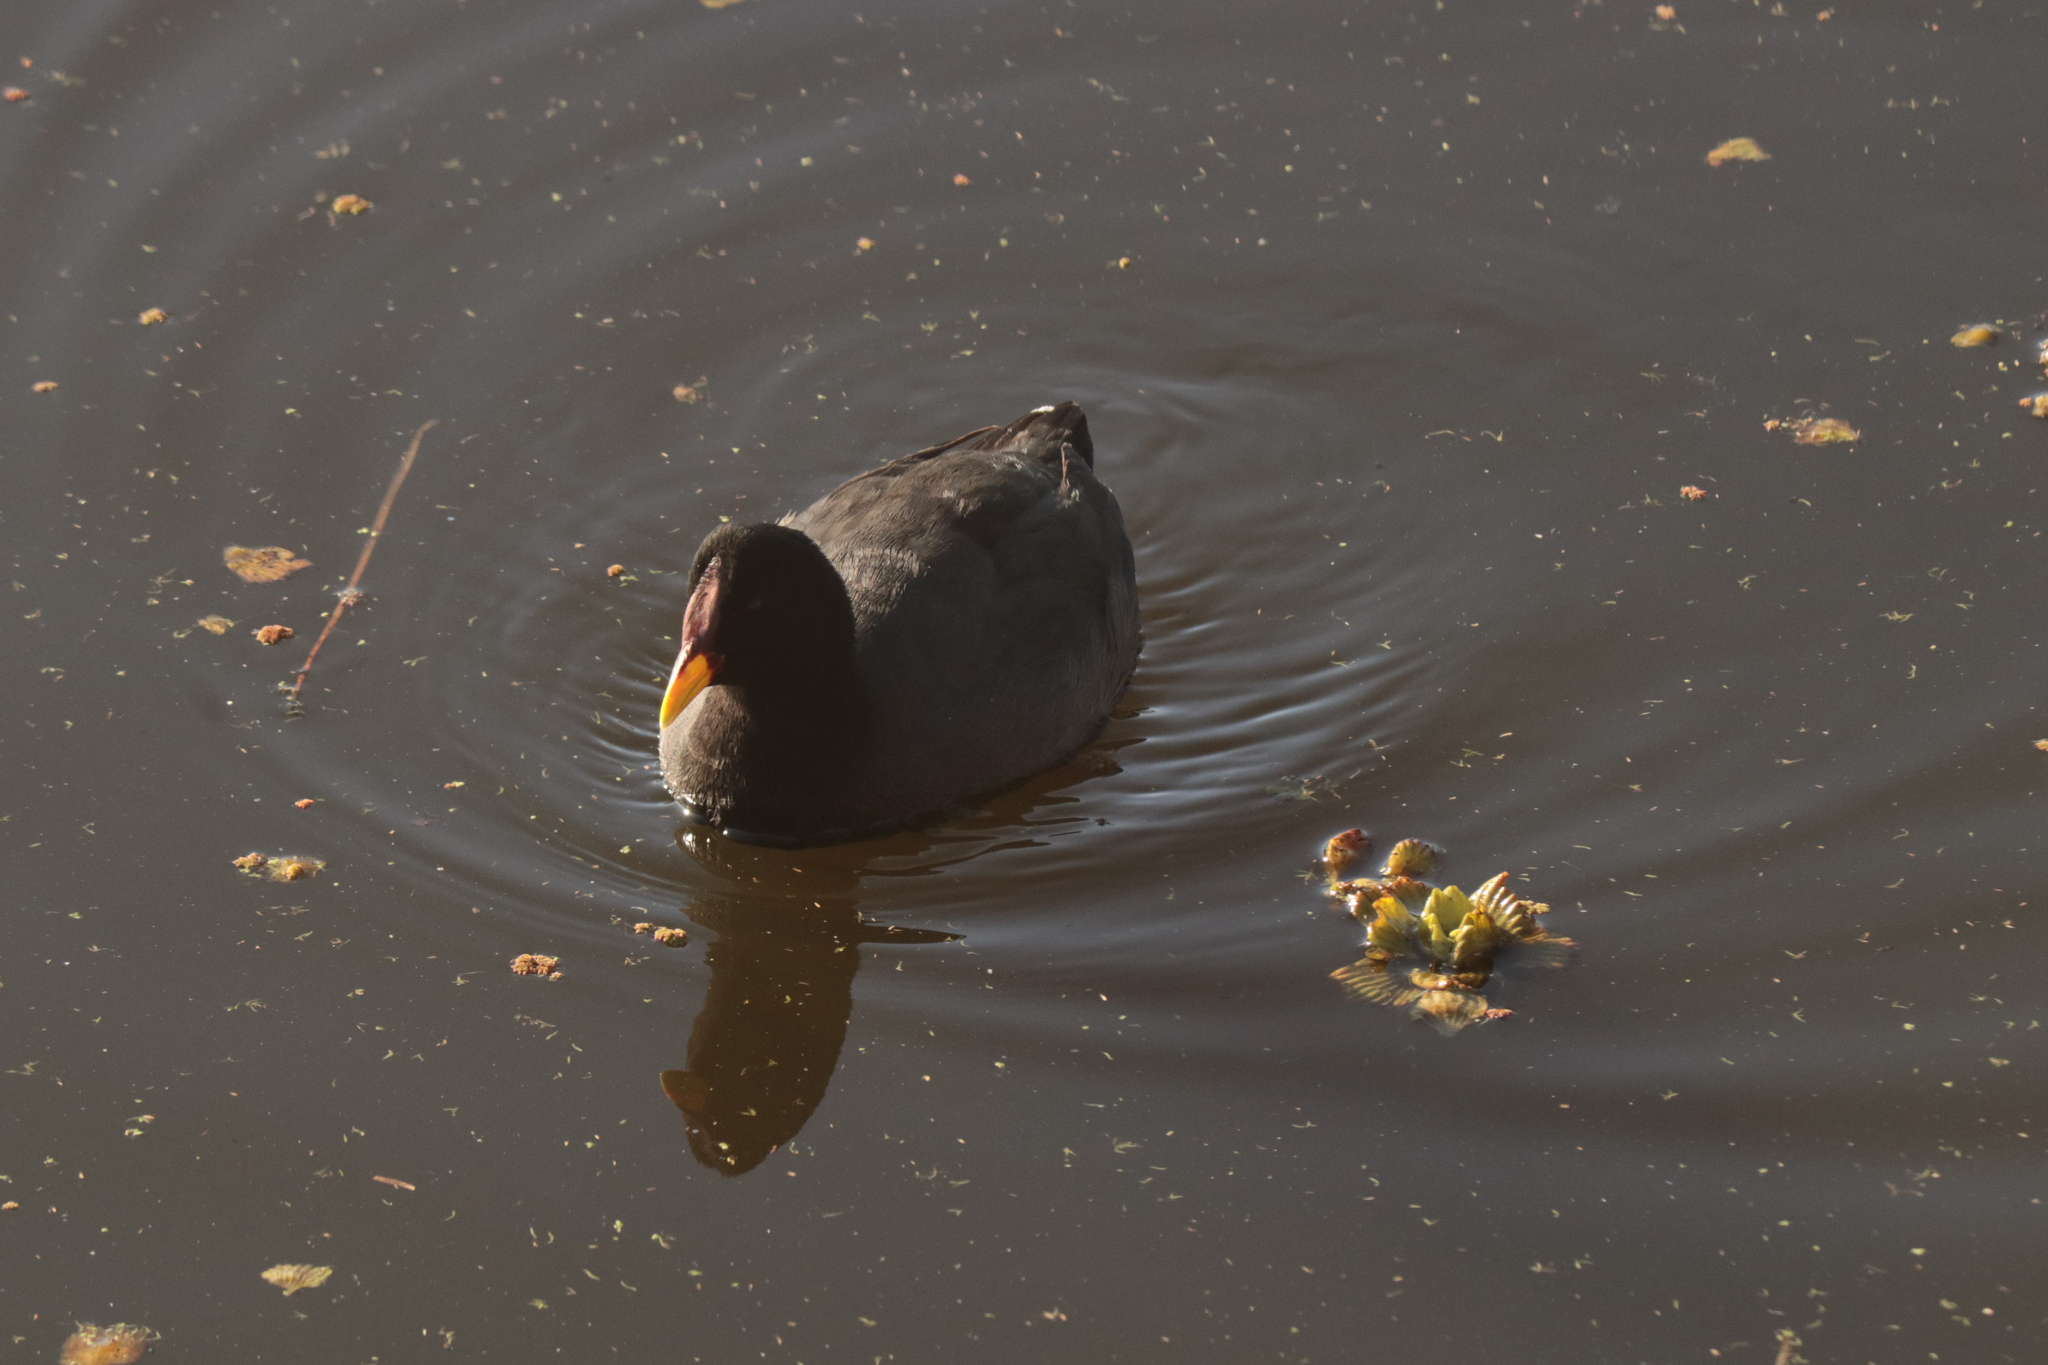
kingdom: Animalia
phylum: Chordata
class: Aves
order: Gruiformes
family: Rallidae
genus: Fulica
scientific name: Fulica rufifrons
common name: Red-fronted coot
